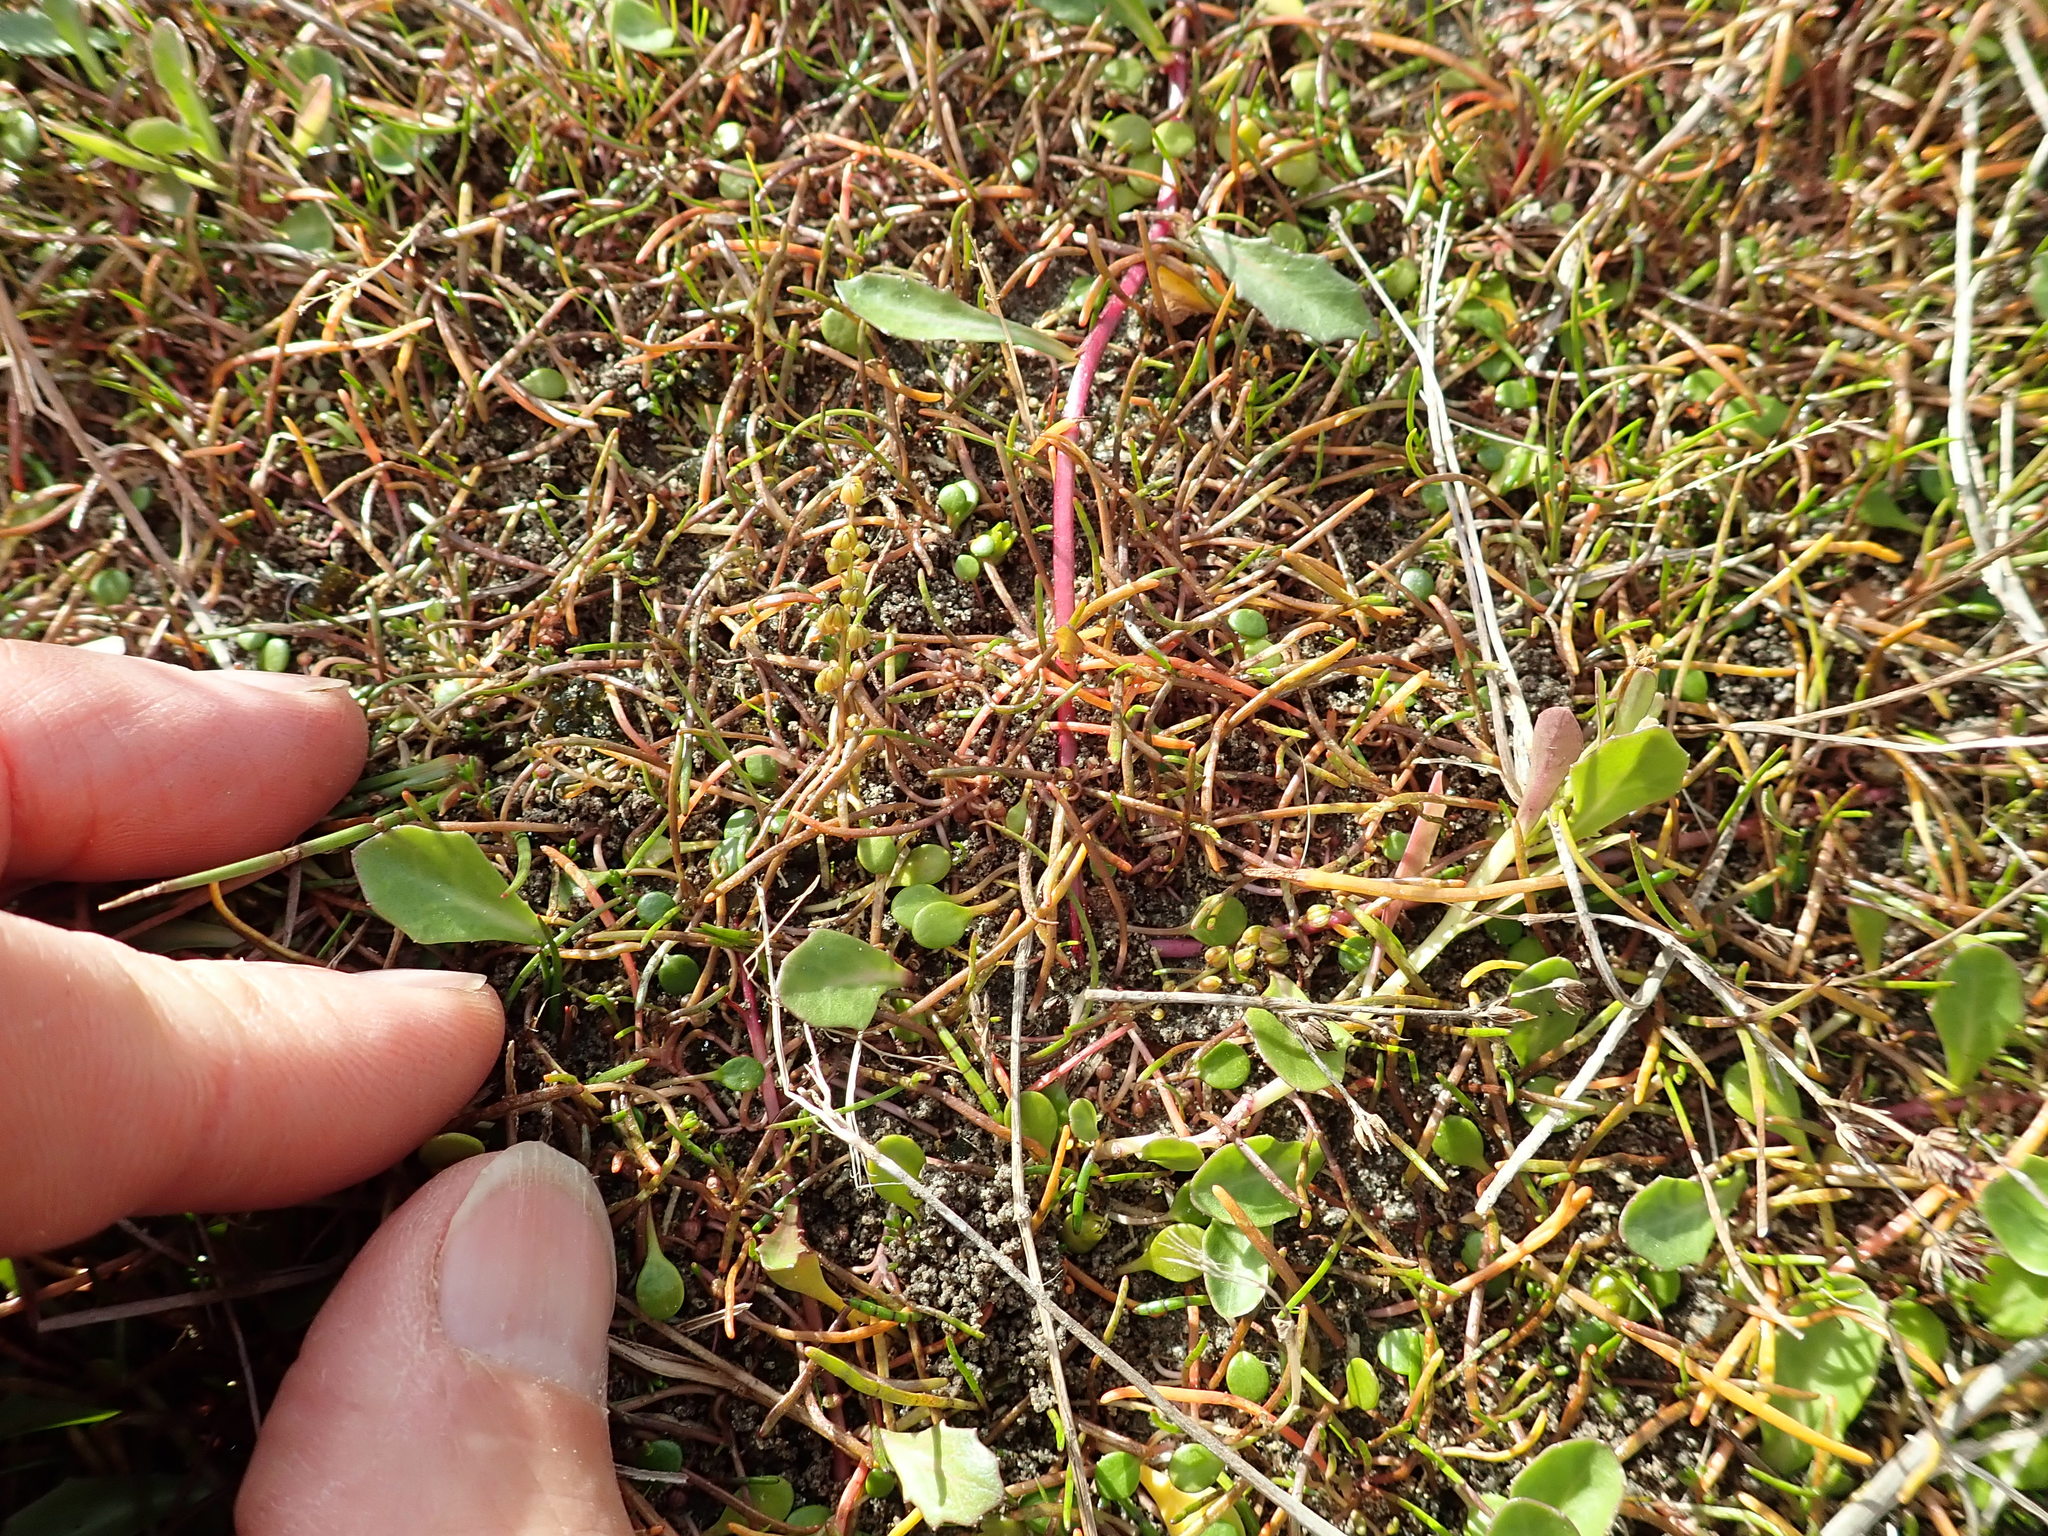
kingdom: Plantae
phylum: Tracheophyta
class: Liliopsida
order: Alismatales
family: Juncaginaceae
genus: Triglochin
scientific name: Triglochin striata
